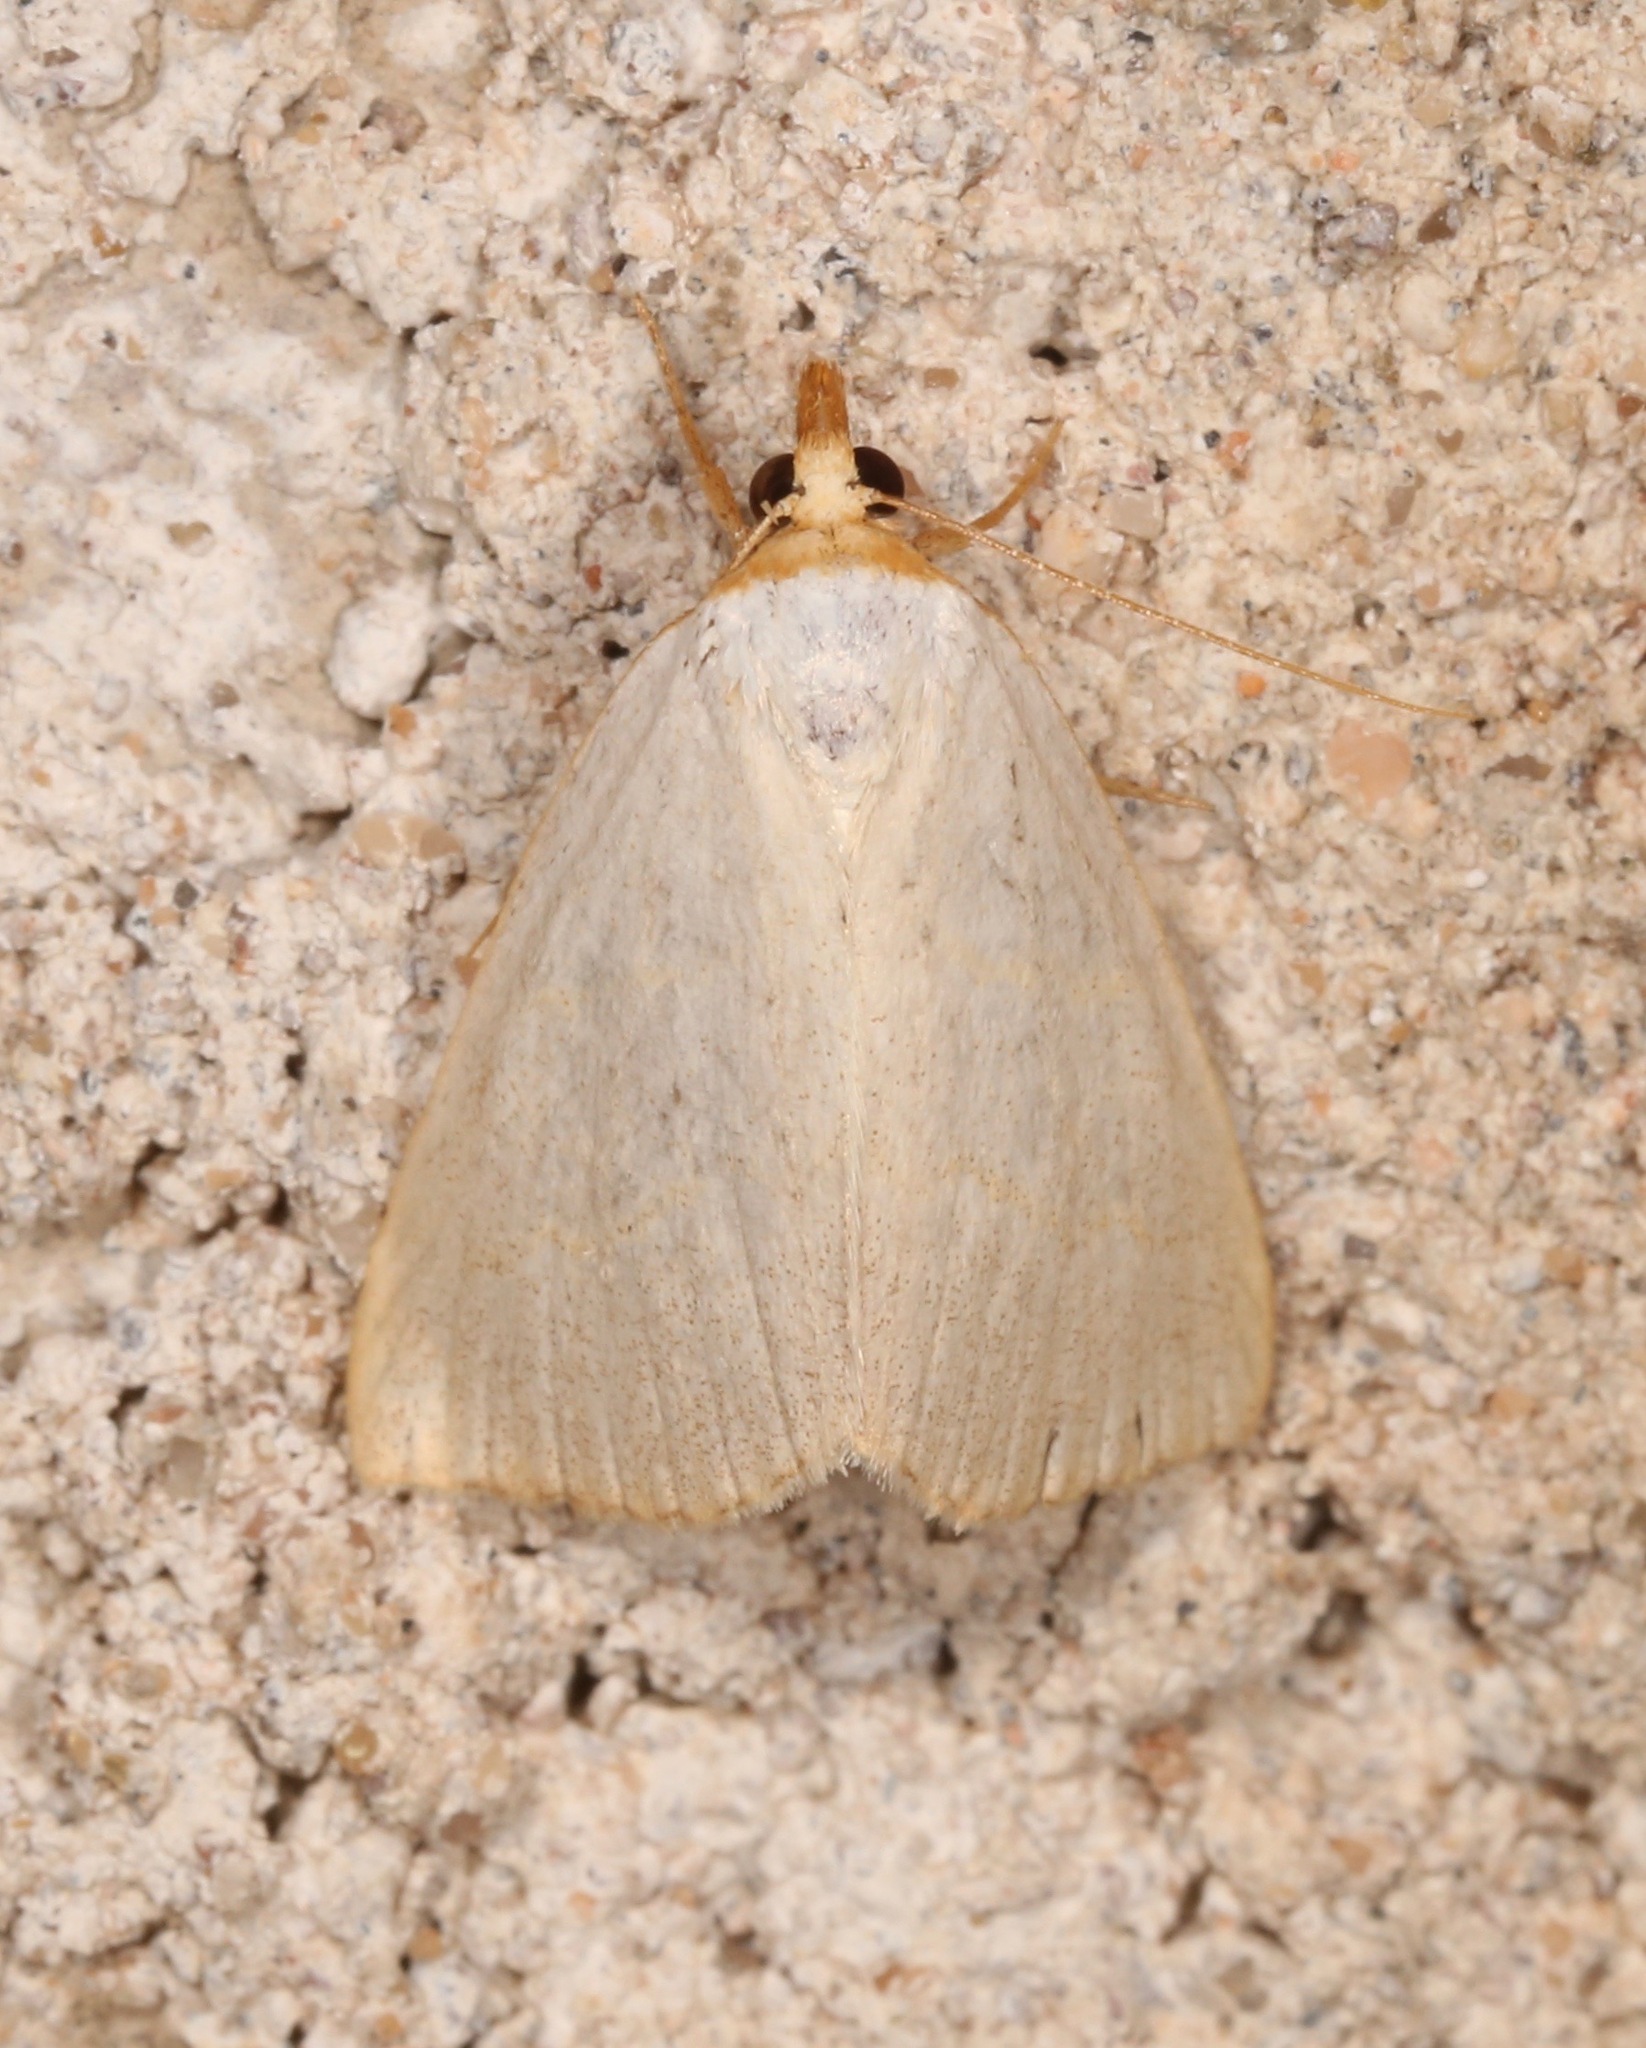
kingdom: Animalia
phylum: Arthropoda
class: Insecta
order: Lepidoptera
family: Erebidae
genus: Oxycilla
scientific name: Oxycilla tripla
